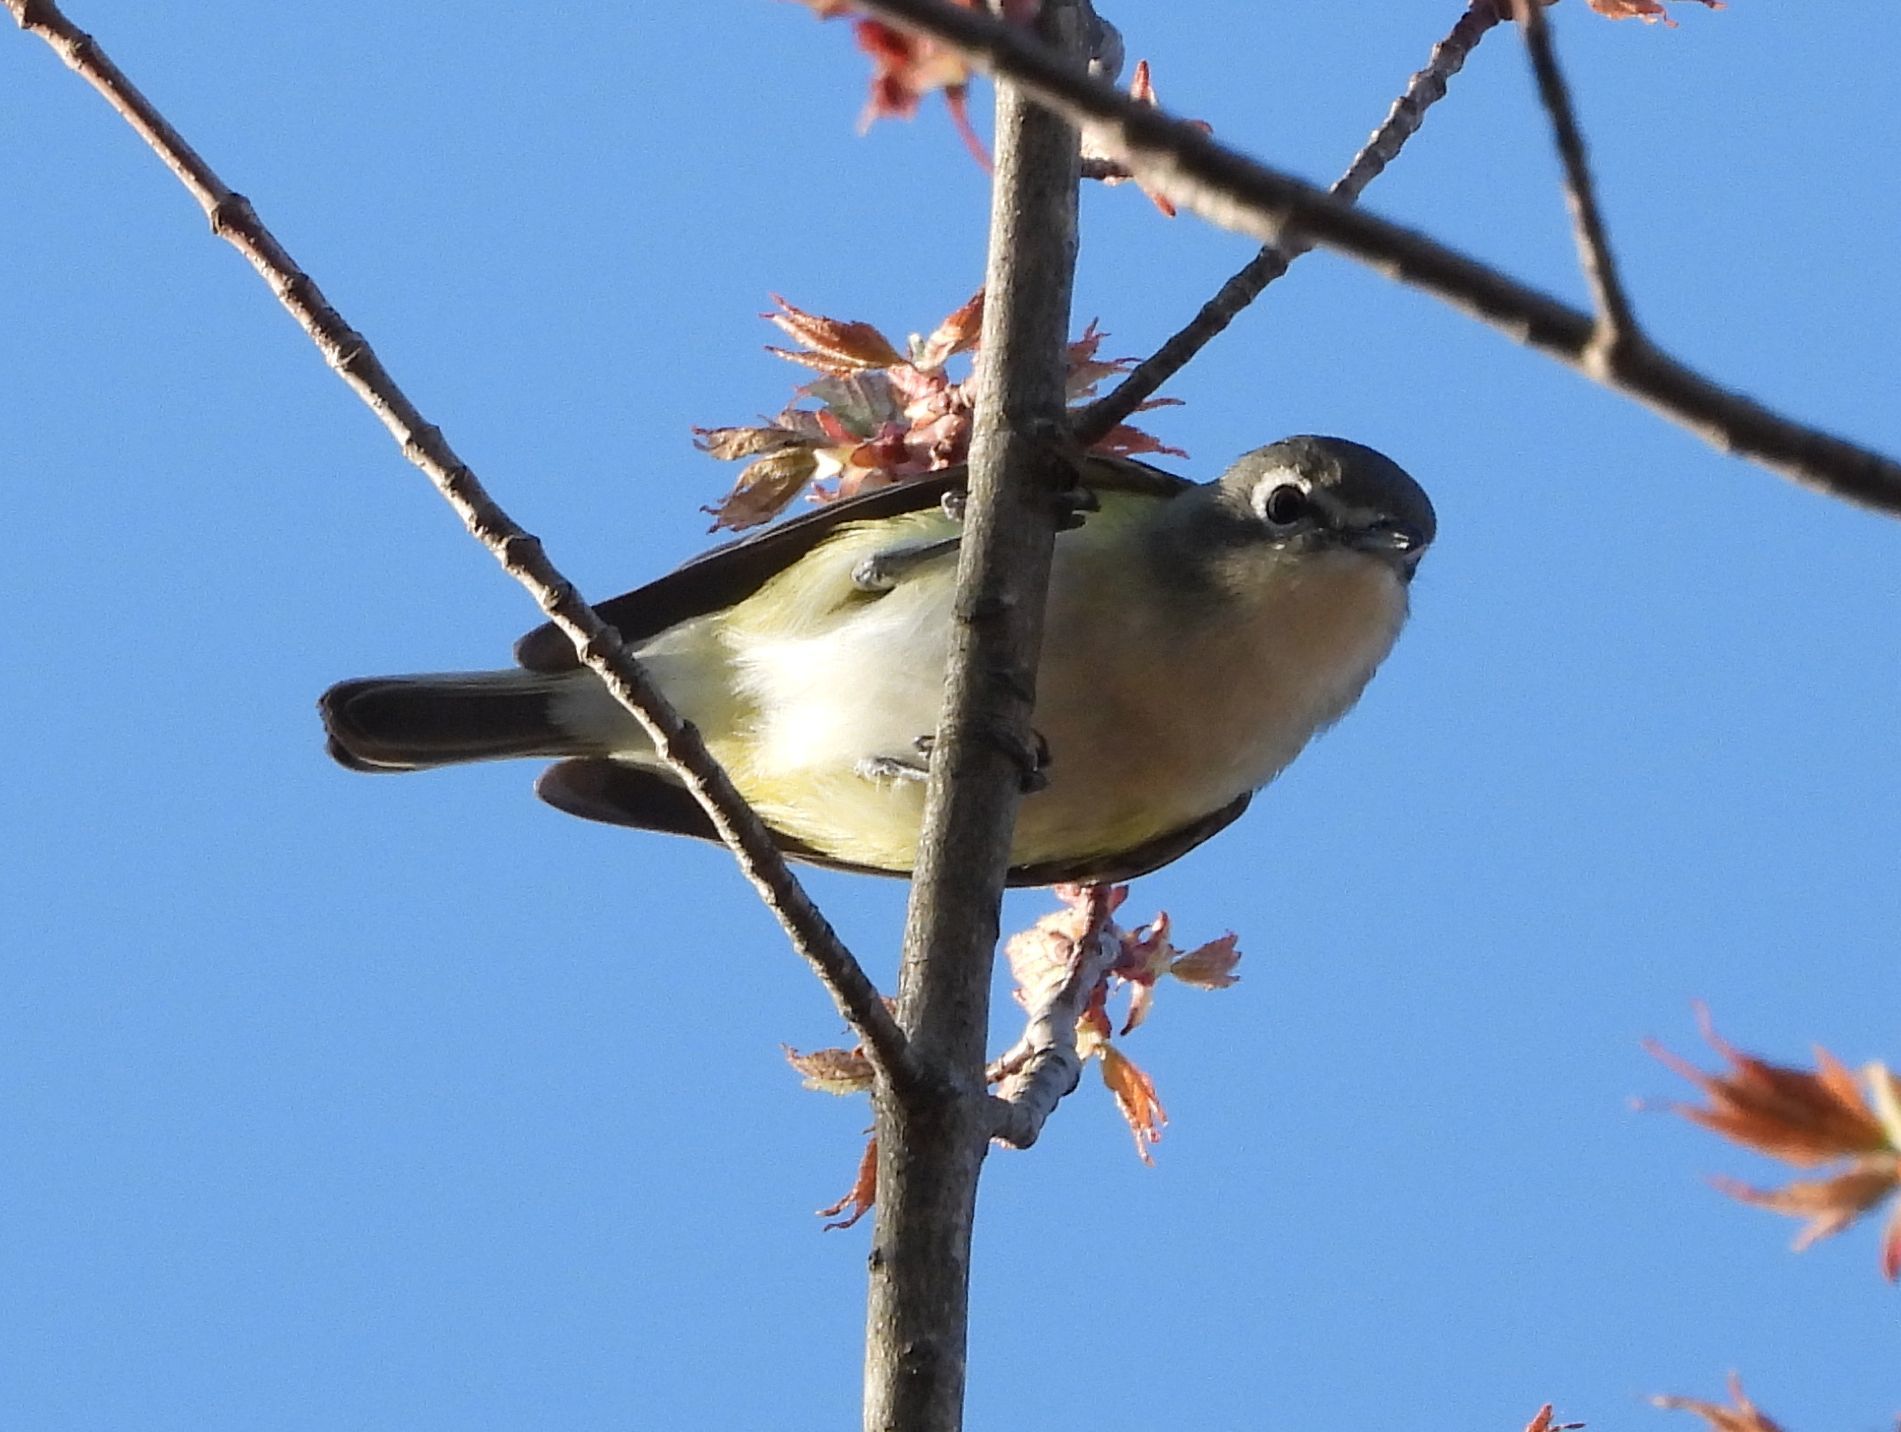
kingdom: Animalia
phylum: Chordata
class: Aves
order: Passeriformes
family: Vireonidae
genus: Vireo
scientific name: Vireo solitarius
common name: Blue-headed vireo
